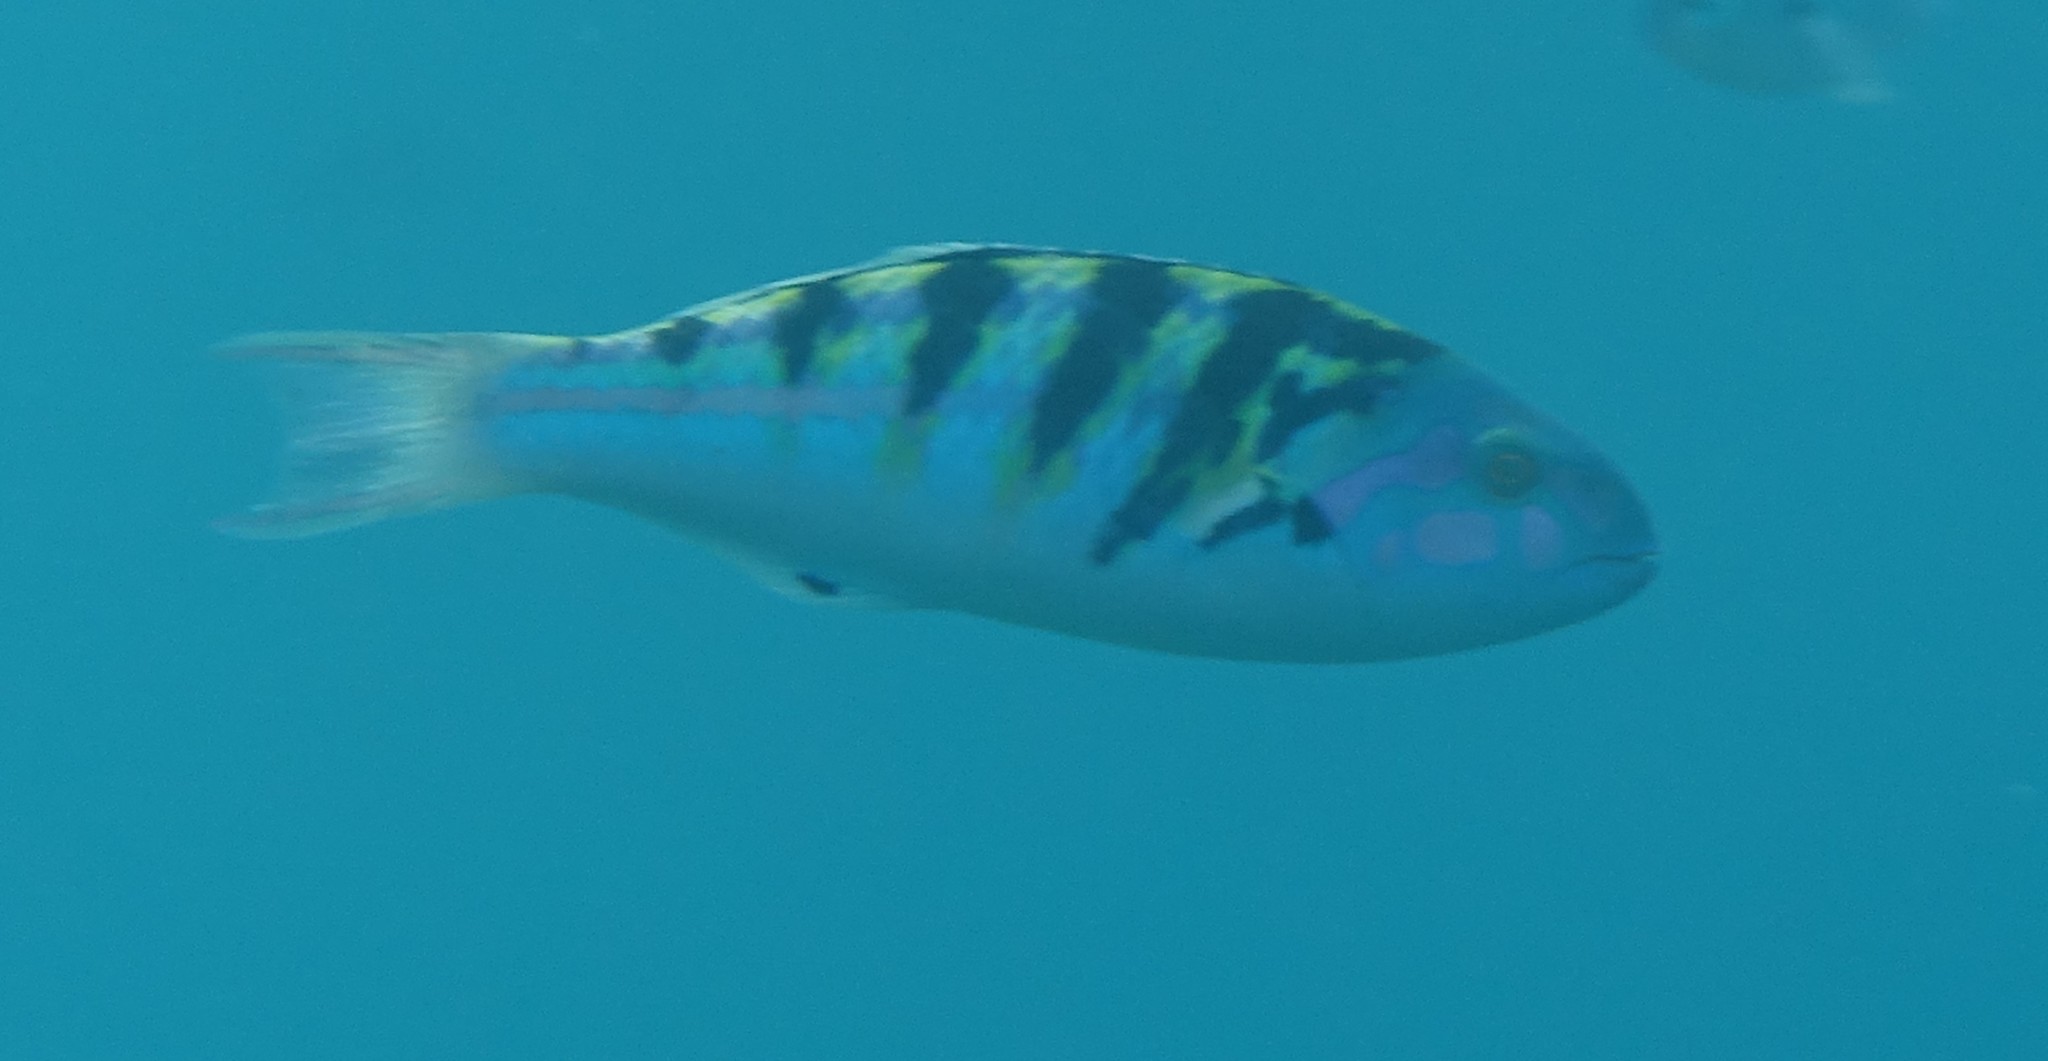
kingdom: Animalia
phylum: Chordata
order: Perciformes
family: Labridae
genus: Thalassoma
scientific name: Thalassoma hardwicke
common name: Sixbar wrasse
